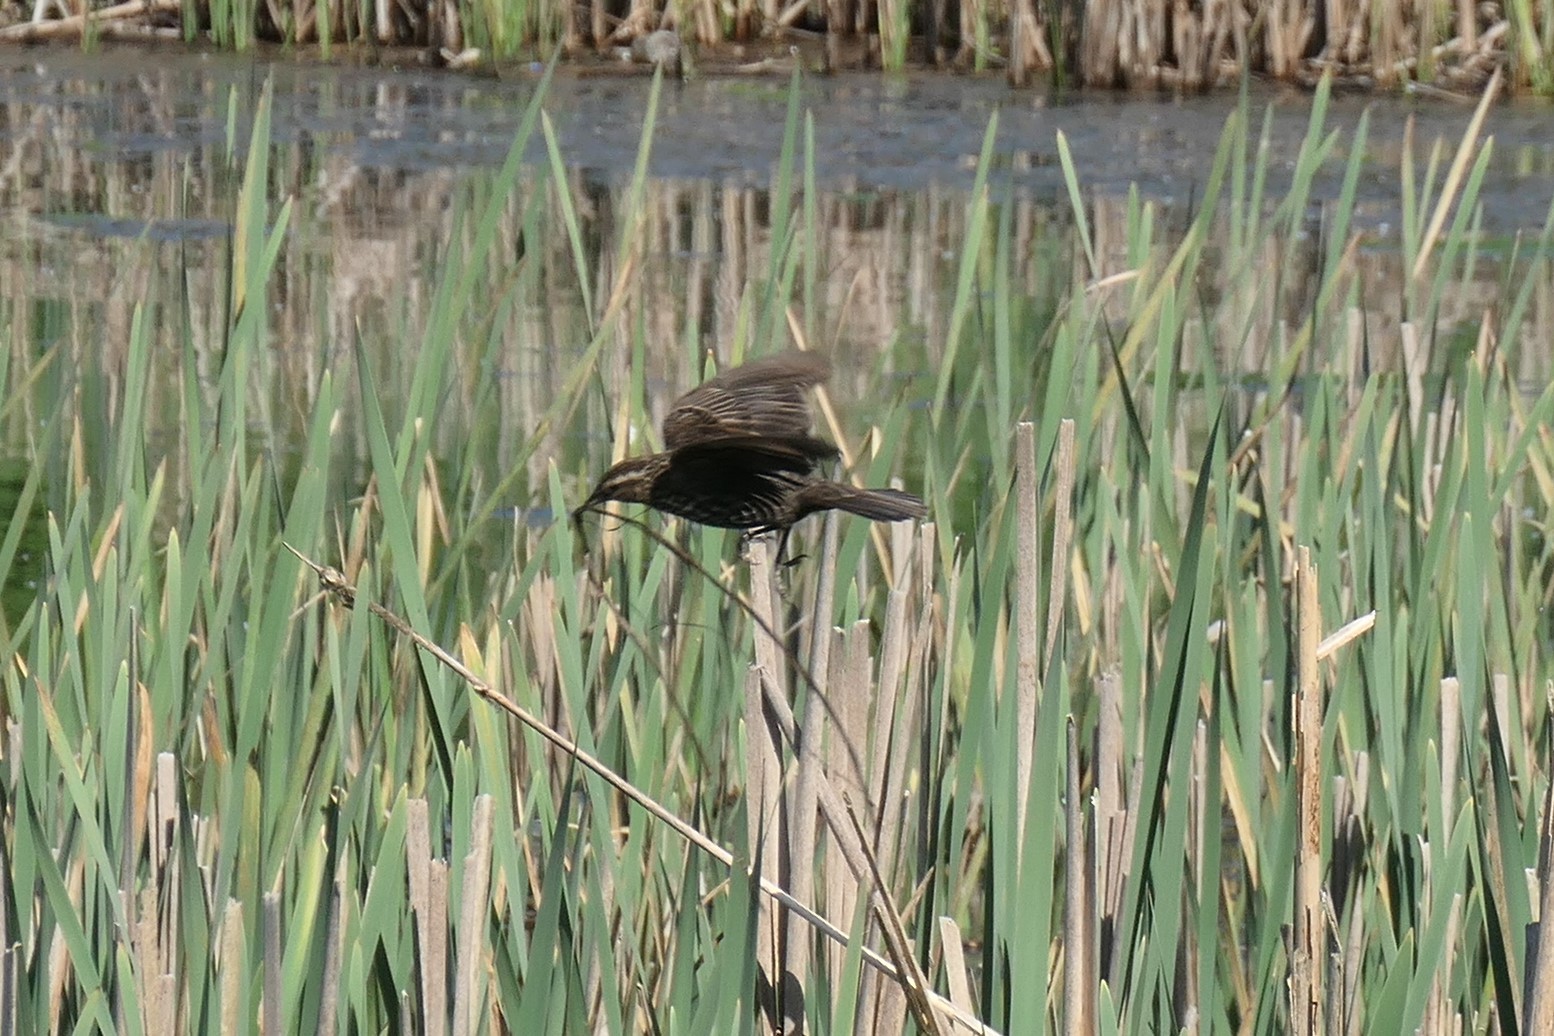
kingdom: Animalia
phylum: Chordata
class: Aves
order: Passeriformes
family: Icteridae
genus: Agelaius
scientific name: Agelaius phoeniceus
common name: Red-winged blackbird
